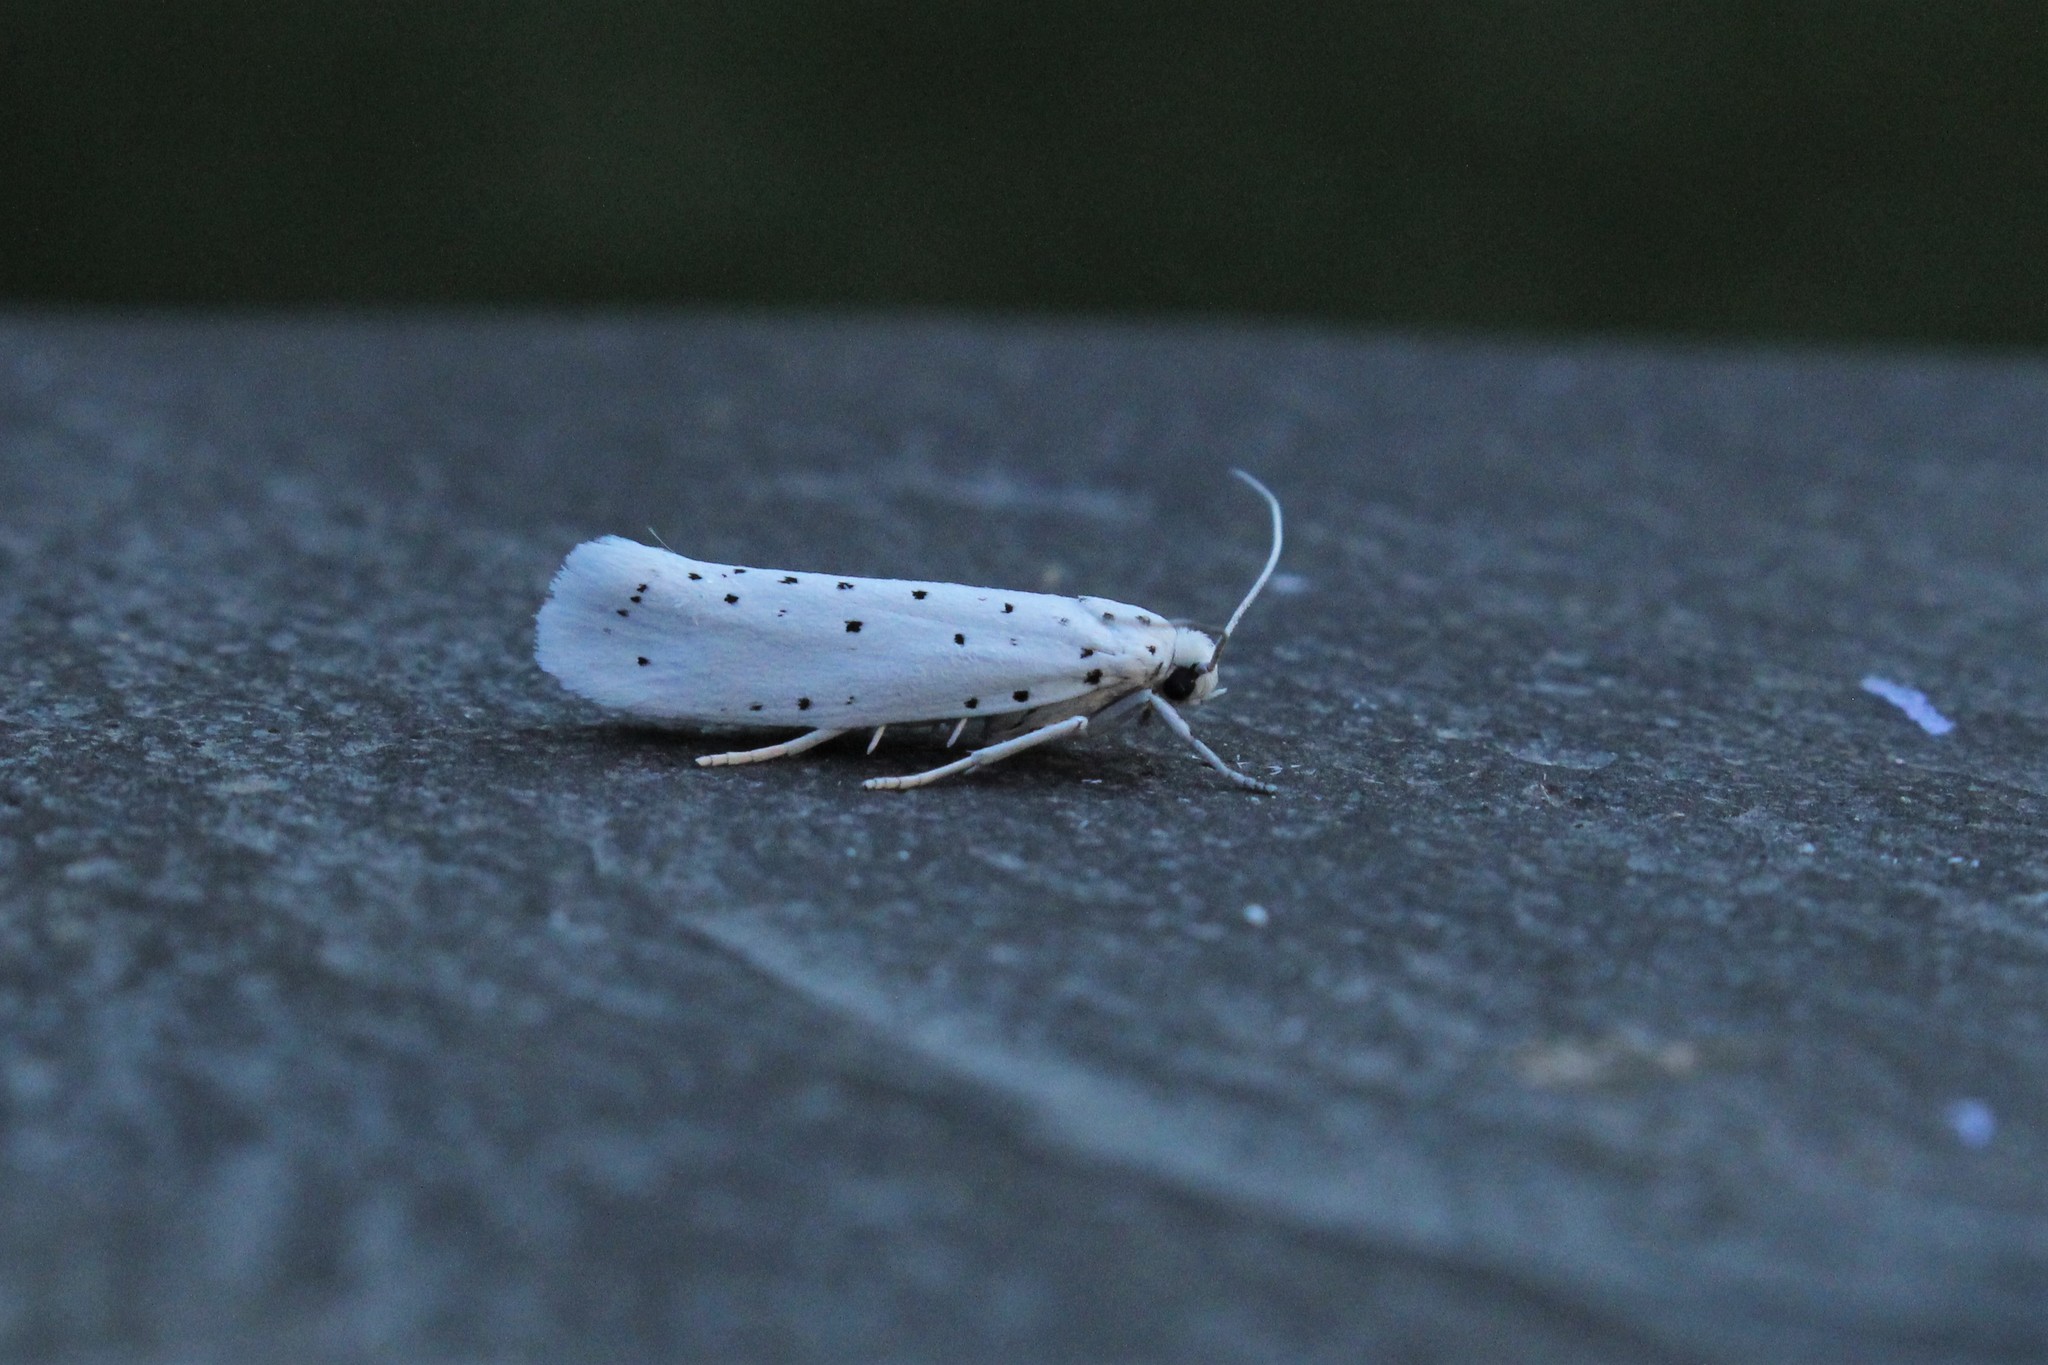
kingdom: Animalia
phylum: Arthropoda
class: Insecta
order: Lepidoptera
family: Yponomeutidae
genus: Yponomeuta
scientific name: Yponomeuta cagnagellus
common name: Spindle ermine
